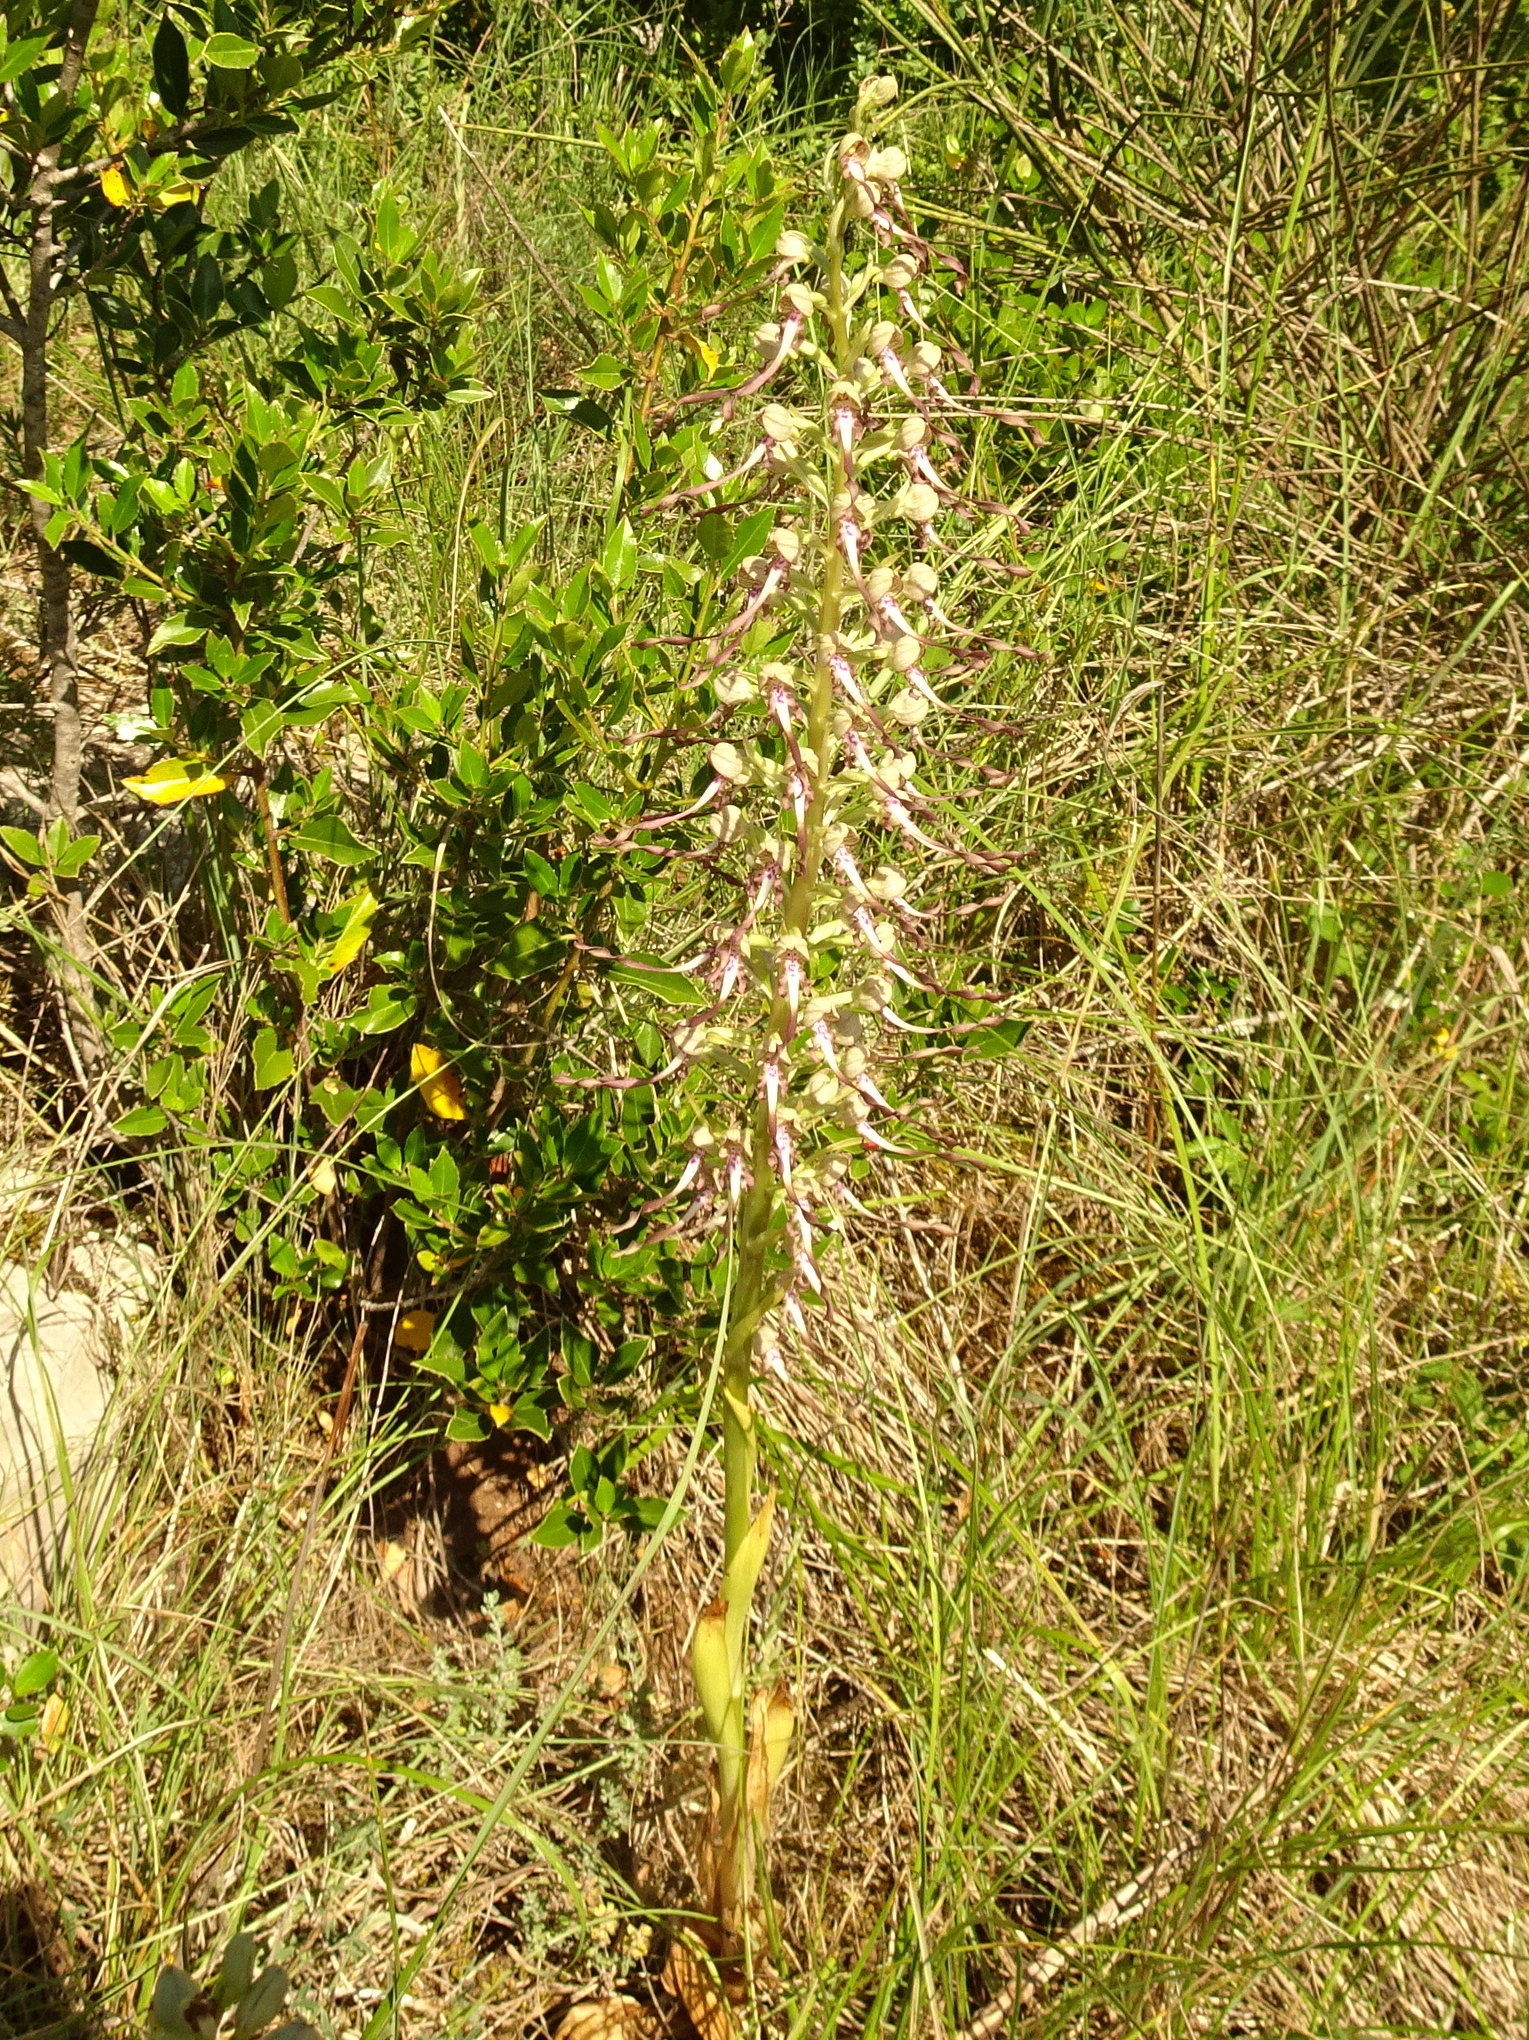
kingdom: Plantae
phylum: Tracheophyta
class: Liliopsida
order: Asparagales
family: Orchidaceae
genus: Himantoglossum
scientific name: Himantoglossum hircinum
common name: Lizard orchid
